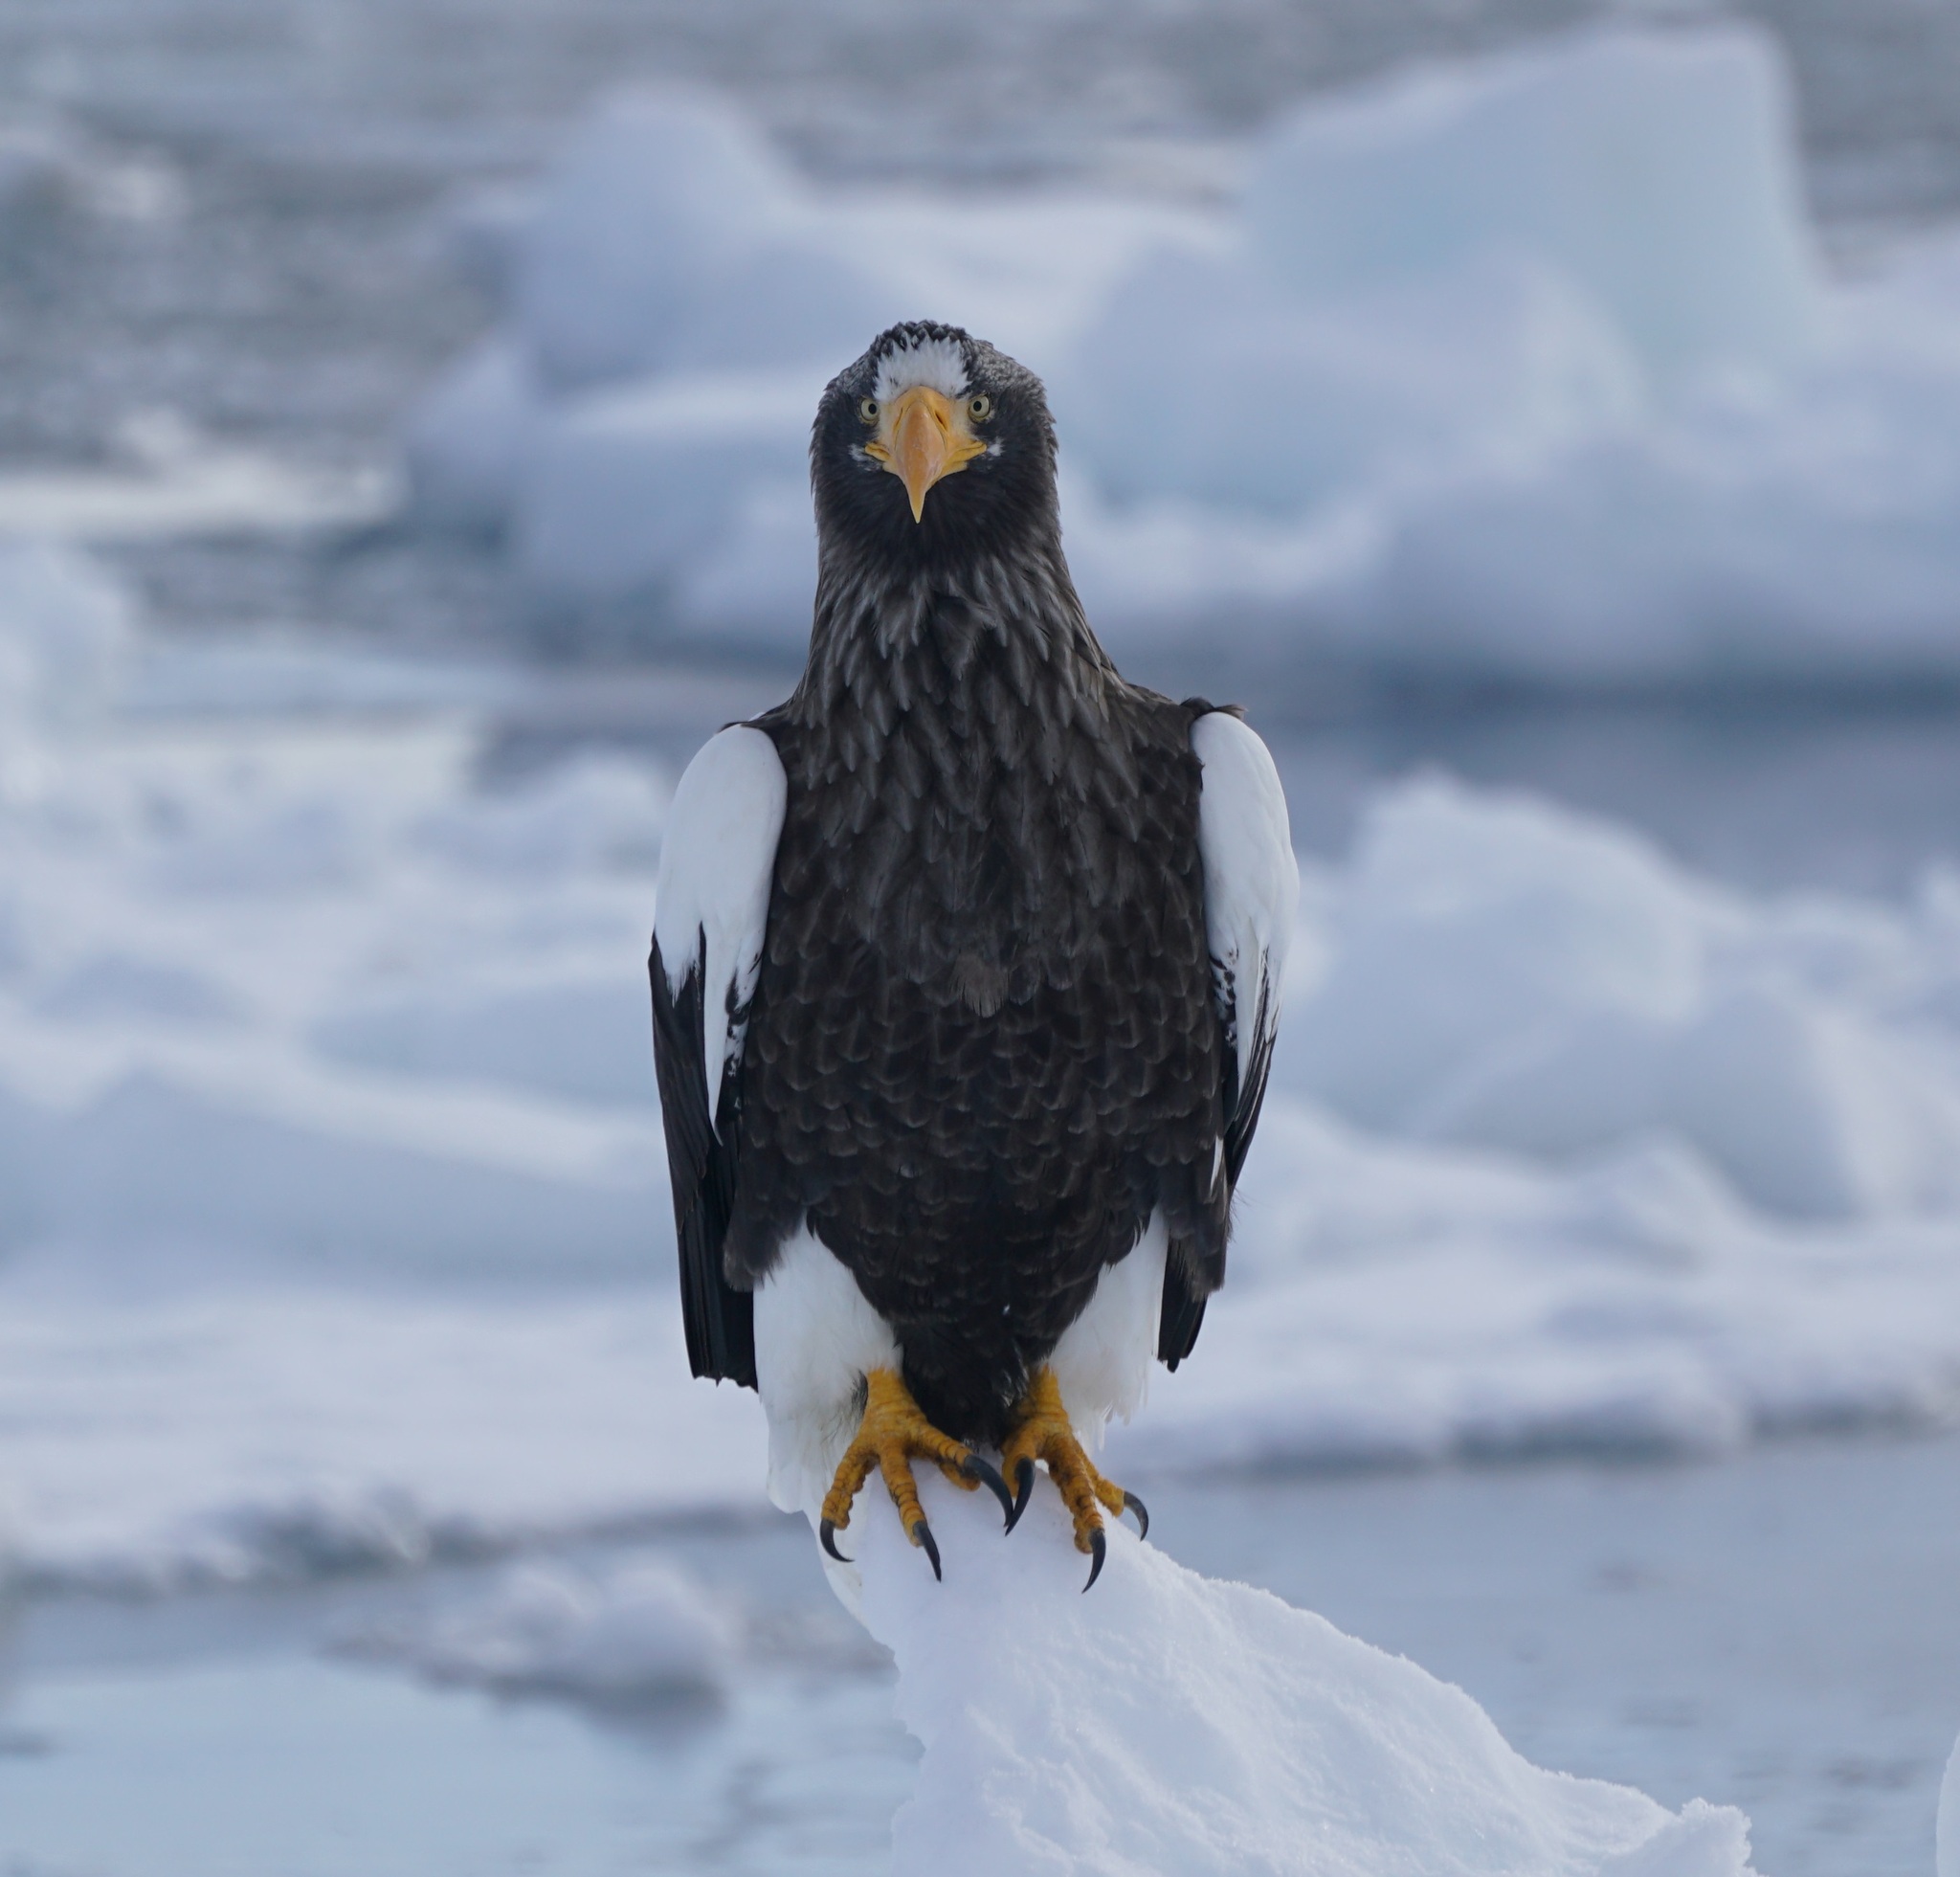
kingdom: Animalia
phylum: Chordata
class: Aves
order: Accipitriformes
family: Accipitridae
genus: Haliaeetus
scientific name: Haliaeetus pelagicus
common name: Steller's sea eagle
